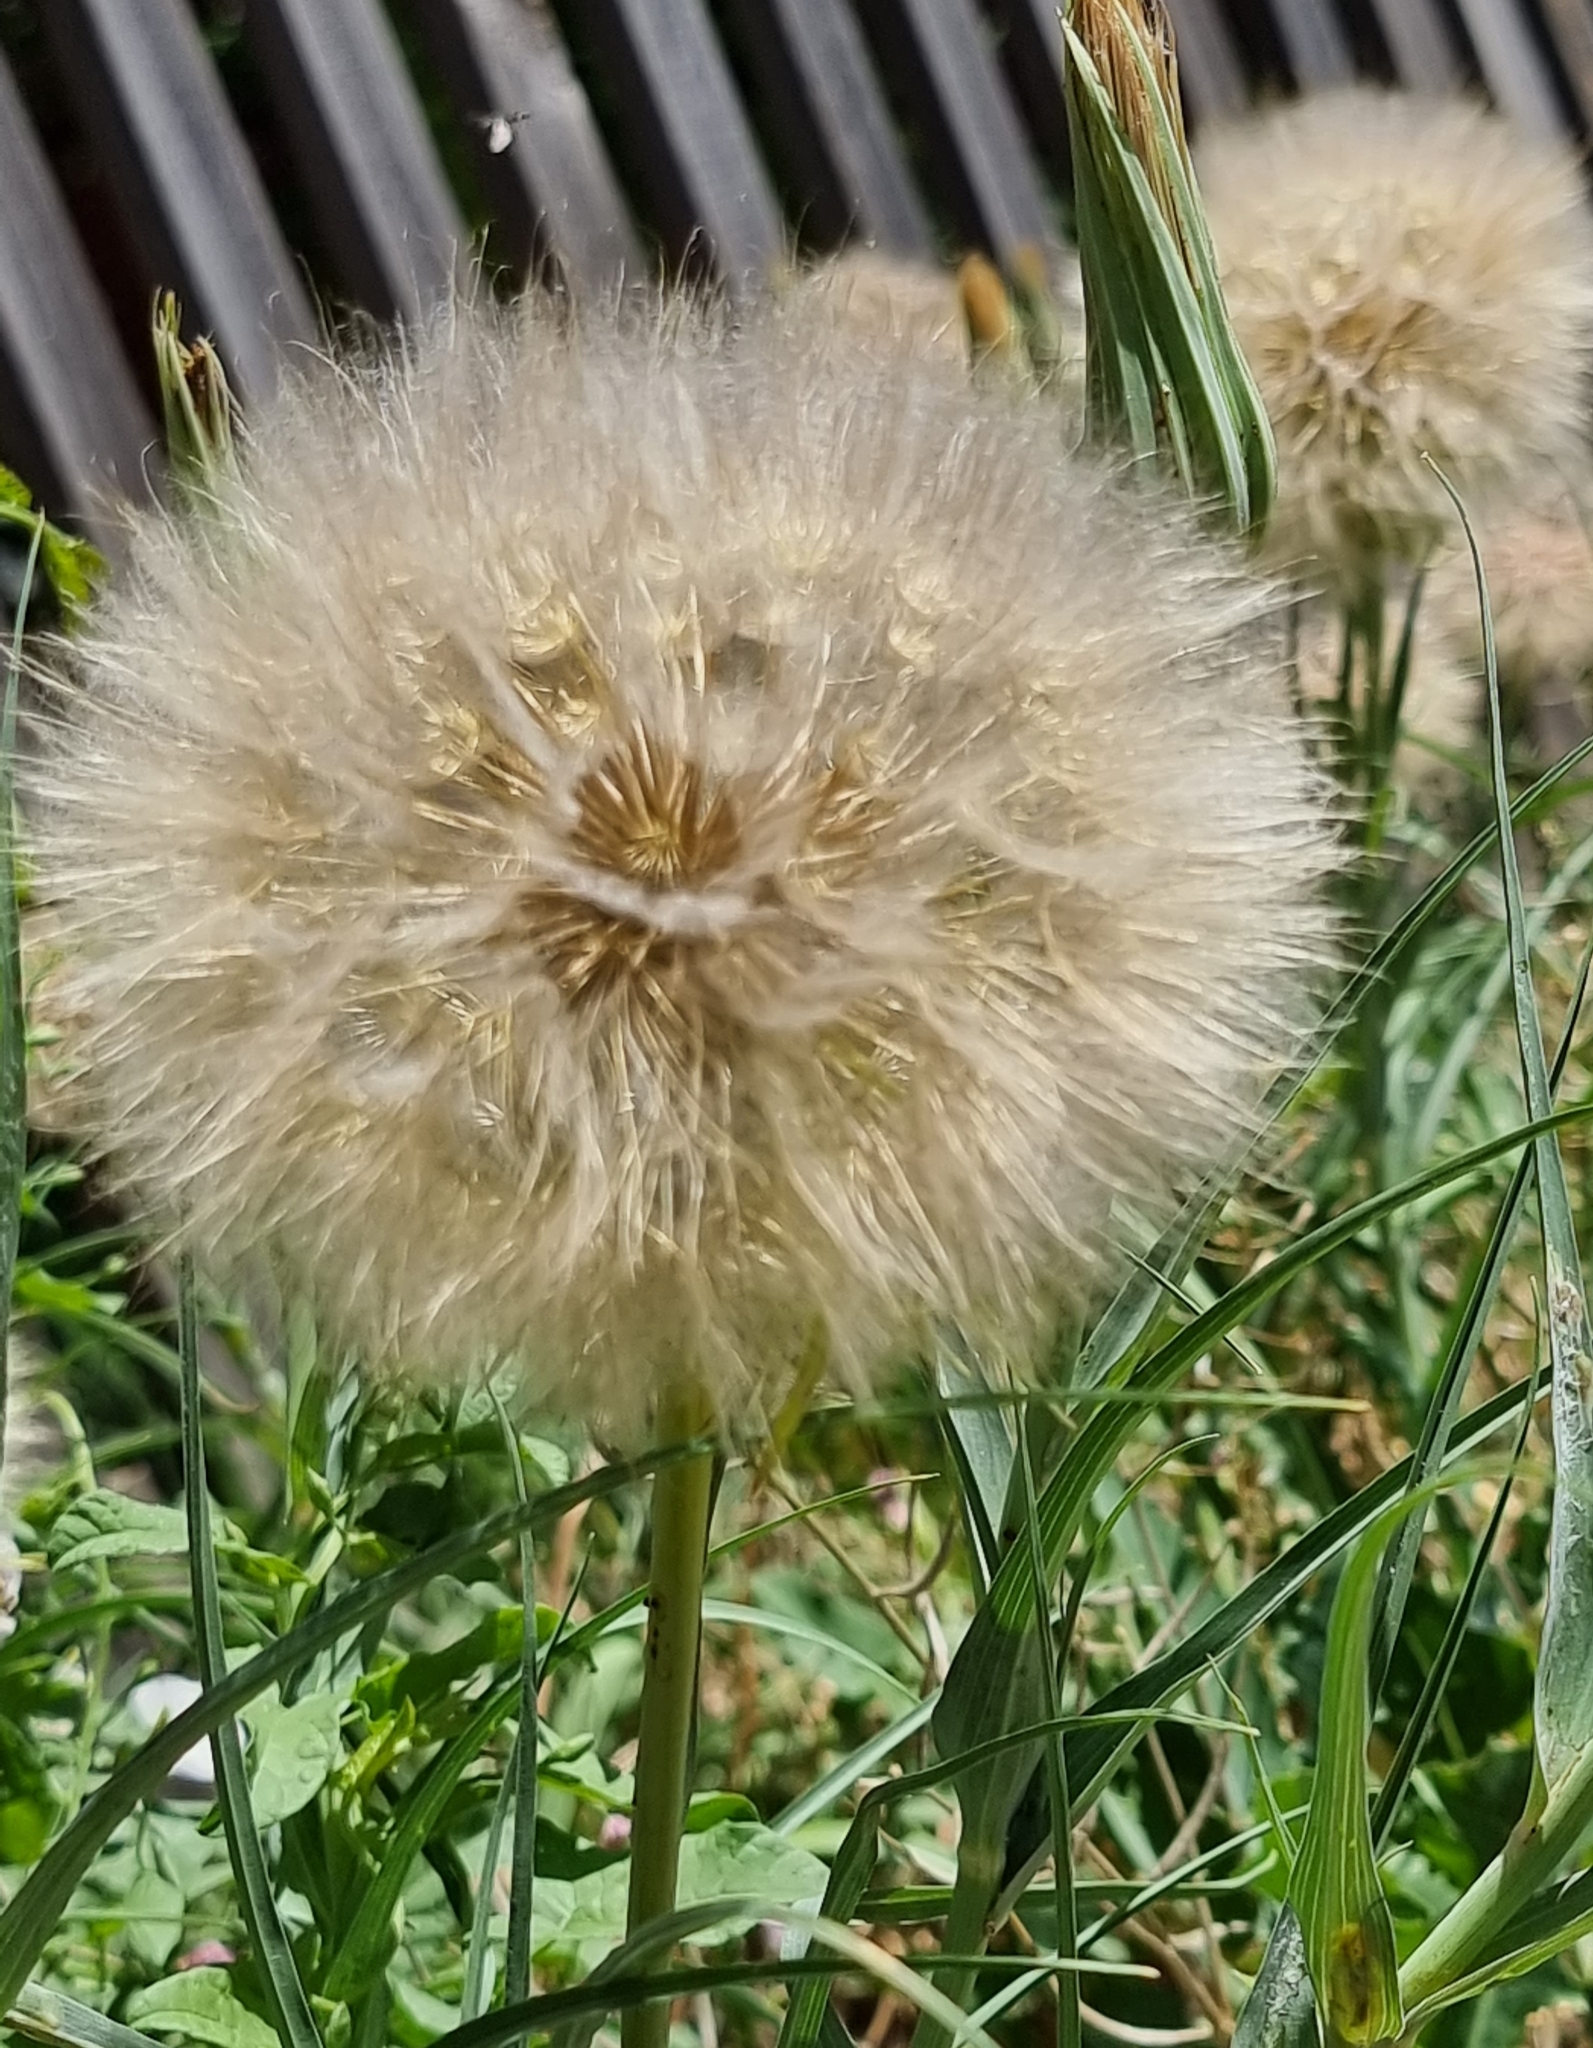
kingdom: Plantae
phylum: Tracheophyta
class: Magnoliopsida
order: Asterales
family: Asteraceae
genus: Tragopogon
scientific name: Tragopogon dubius
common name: Yellow salsify
